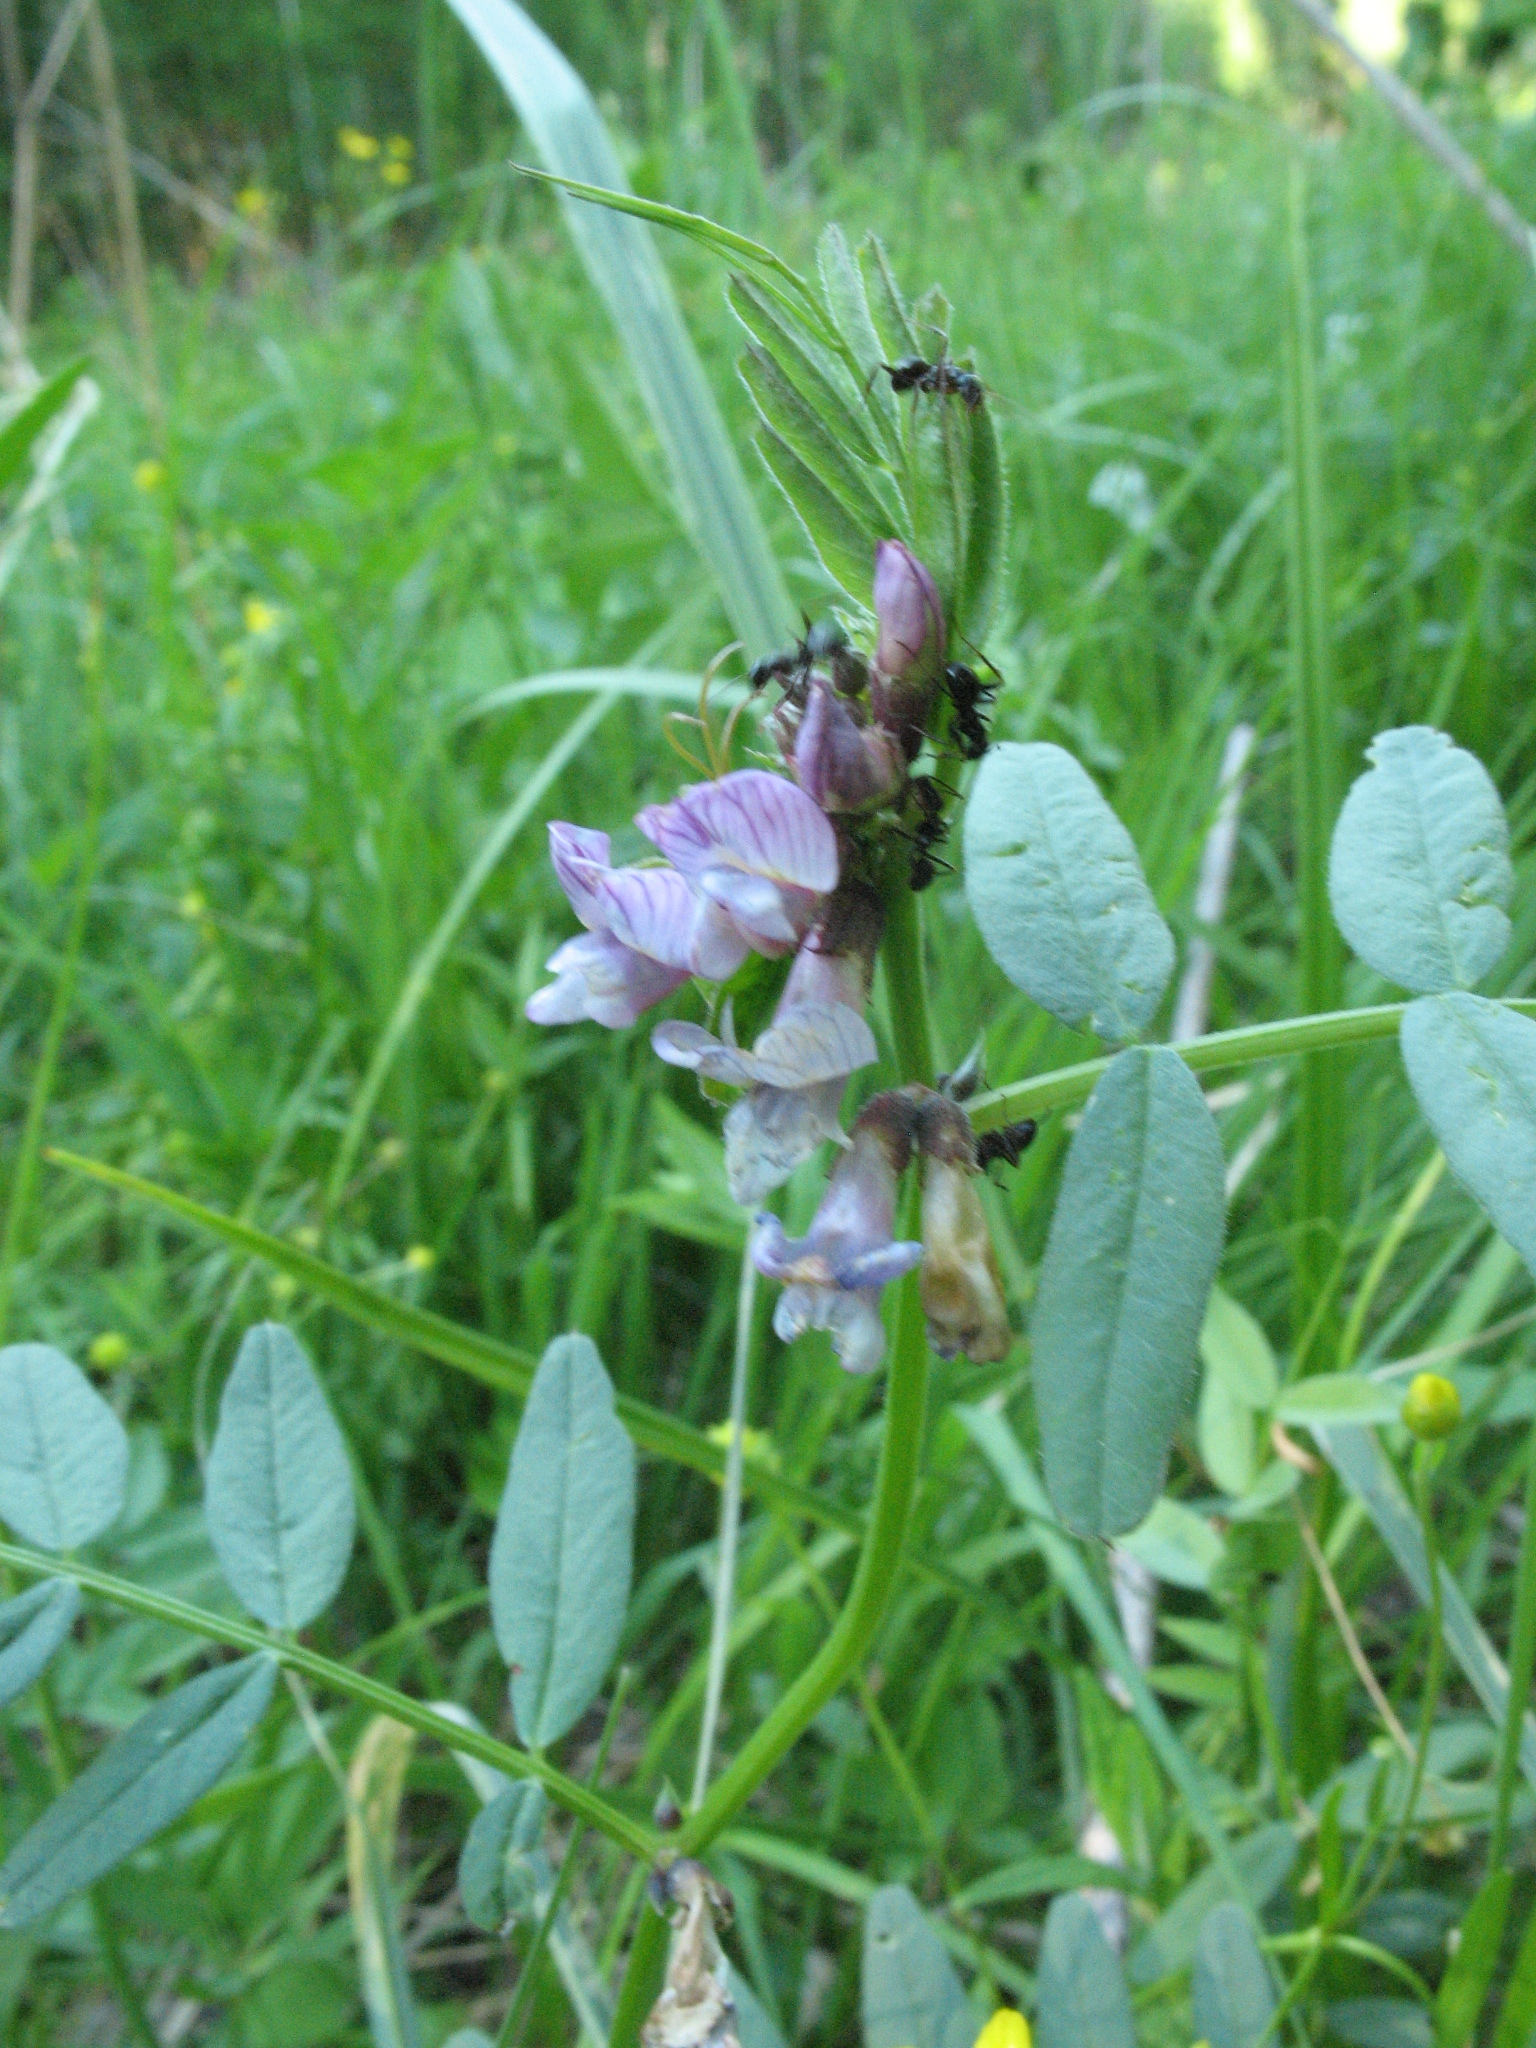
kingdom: Plantae
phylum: Tracheophyta
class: Magnoliopsida
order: Fabales
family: Fabaceae
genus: Vicia
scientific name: Vicia sepium
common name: Bush vetch
